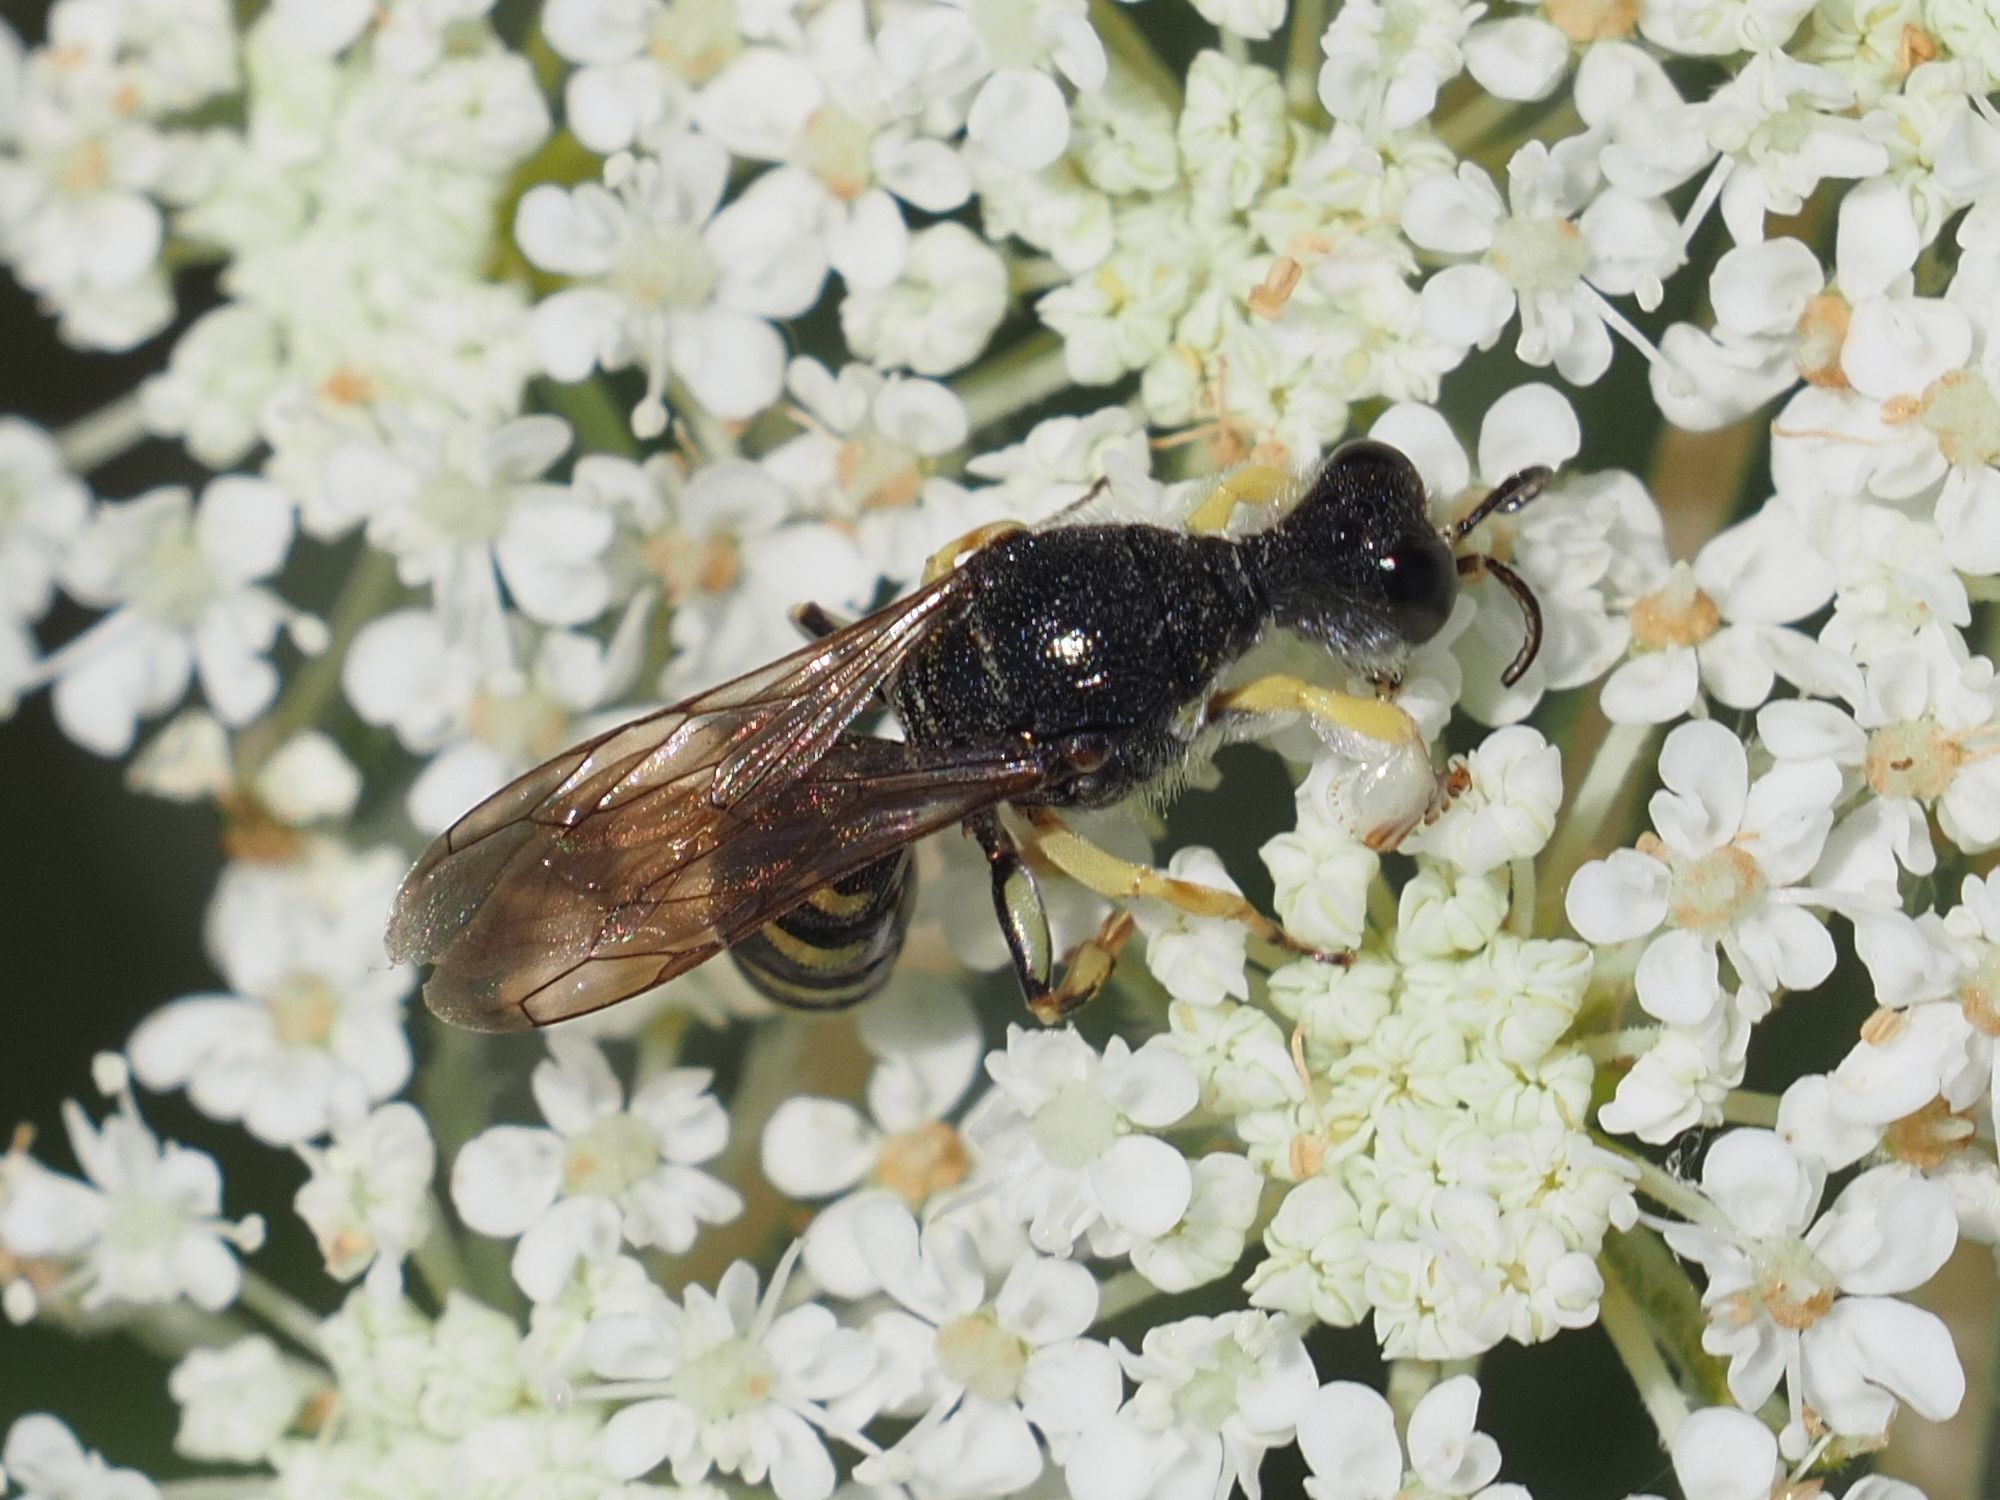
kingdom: Animalia
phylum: Arthropoda
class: Insecta
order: Hymenoptera
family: Crabronidae
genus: Lestica
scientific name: Lestica clypeata
